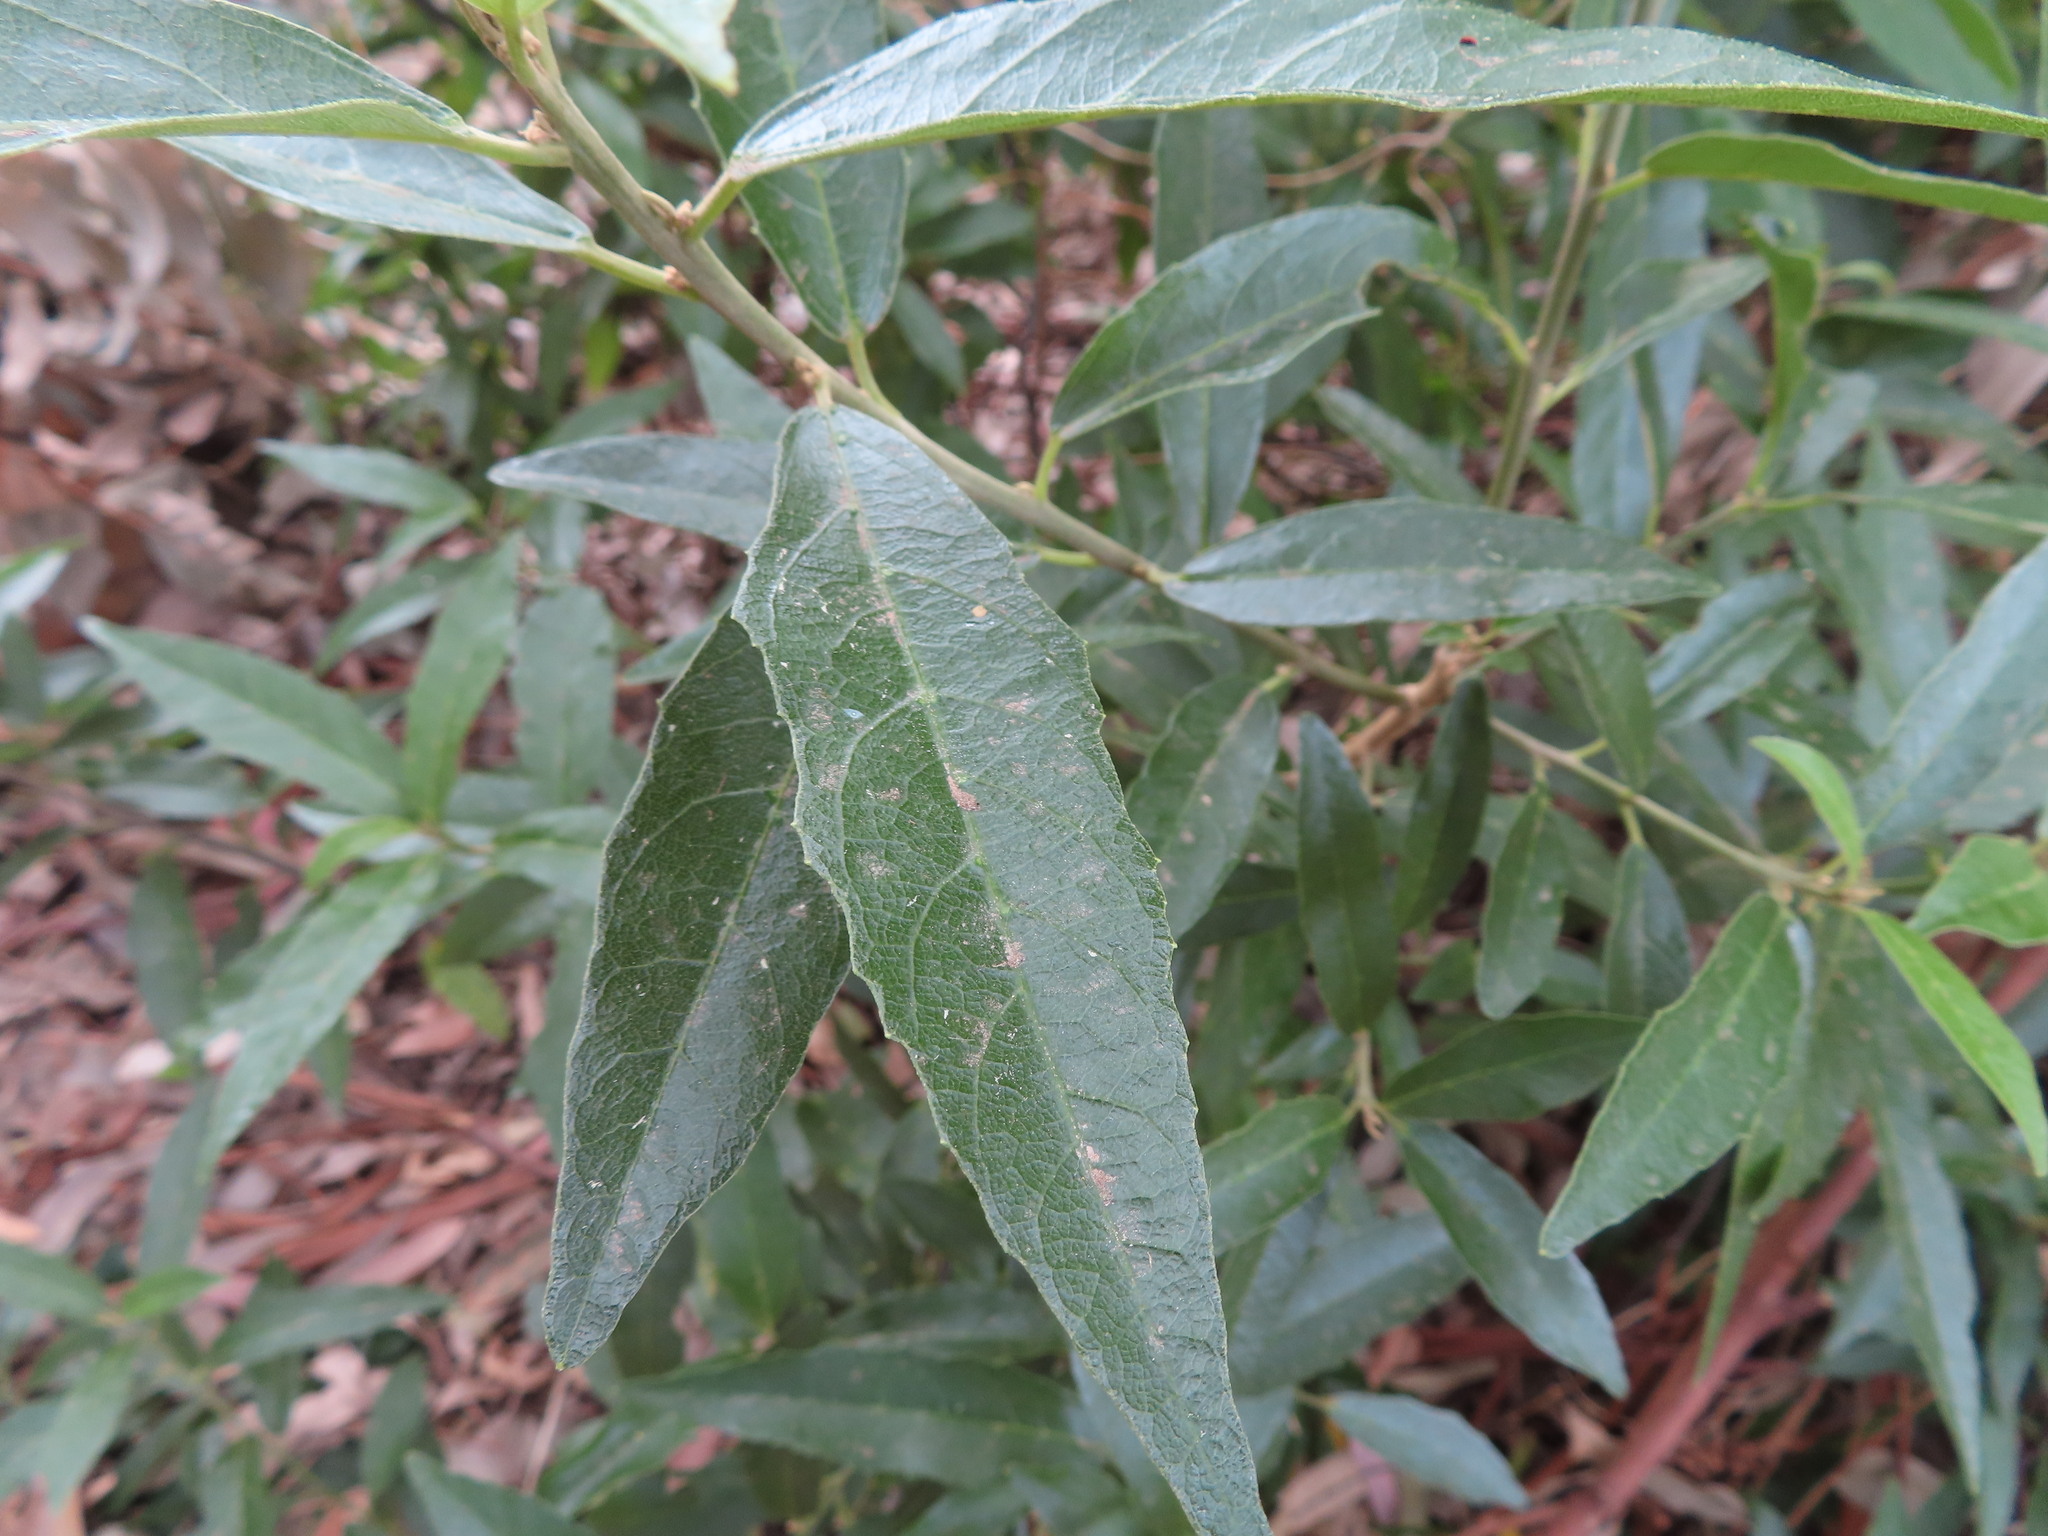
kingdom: Plantae
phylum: Tracheophyta
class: Magnoliopsida
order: Malpighiales
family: Achariaceae
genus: Kiggelaria
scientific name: Kiggelaria africana
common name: Wild peach
